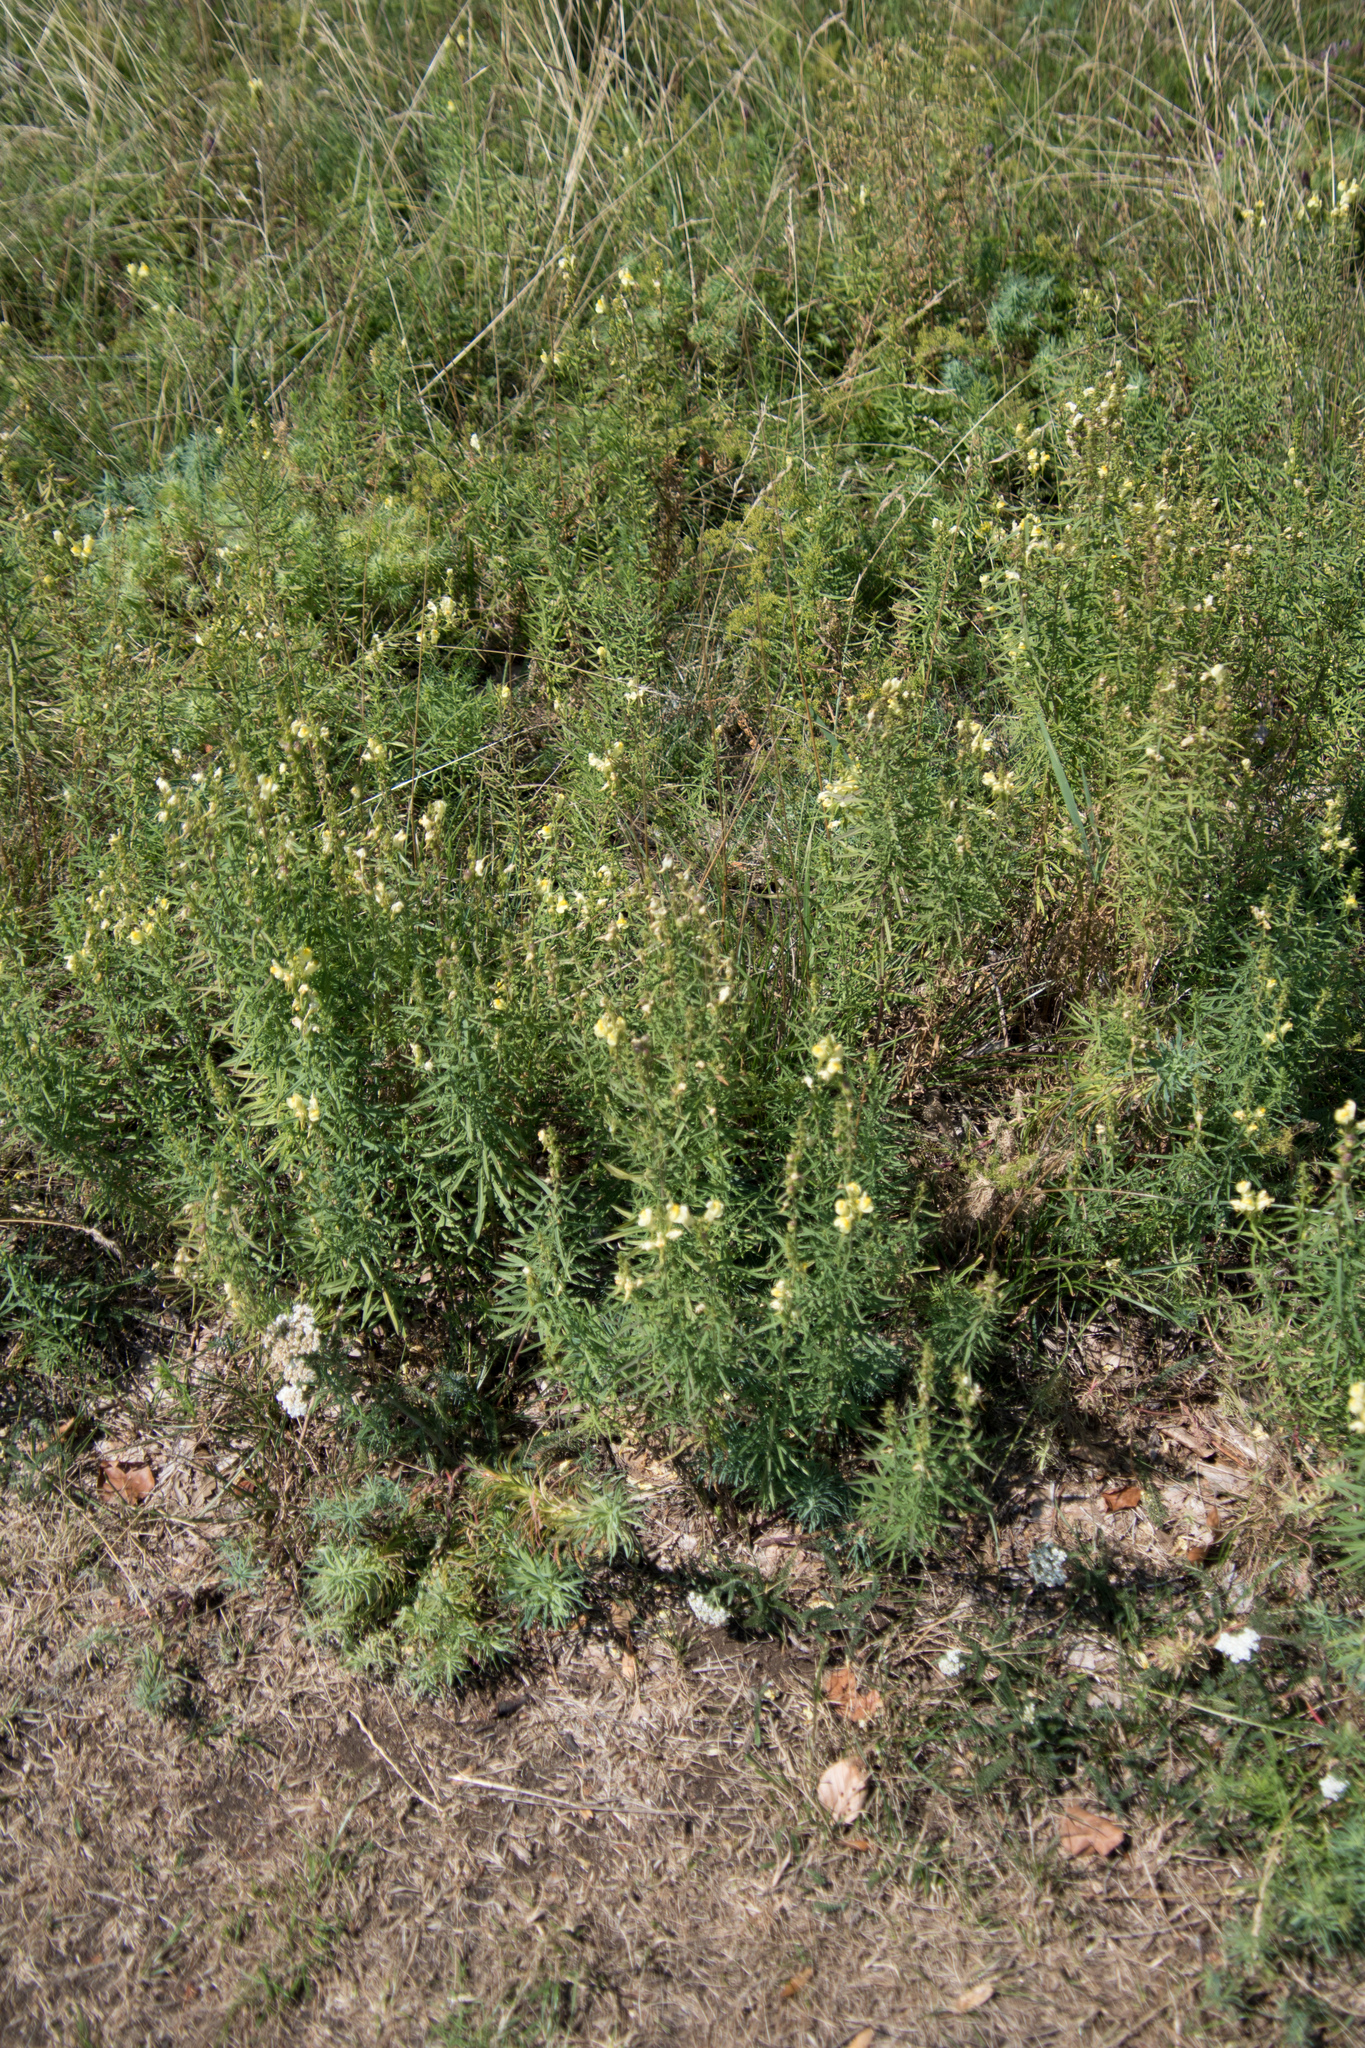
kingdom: Plantae
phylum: Tracheophyta
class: Magnoliopsida
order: Lamiales
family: Plantaginaceae
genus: Linaria
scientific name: Linaria vulgaris
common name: Butter and eggs
